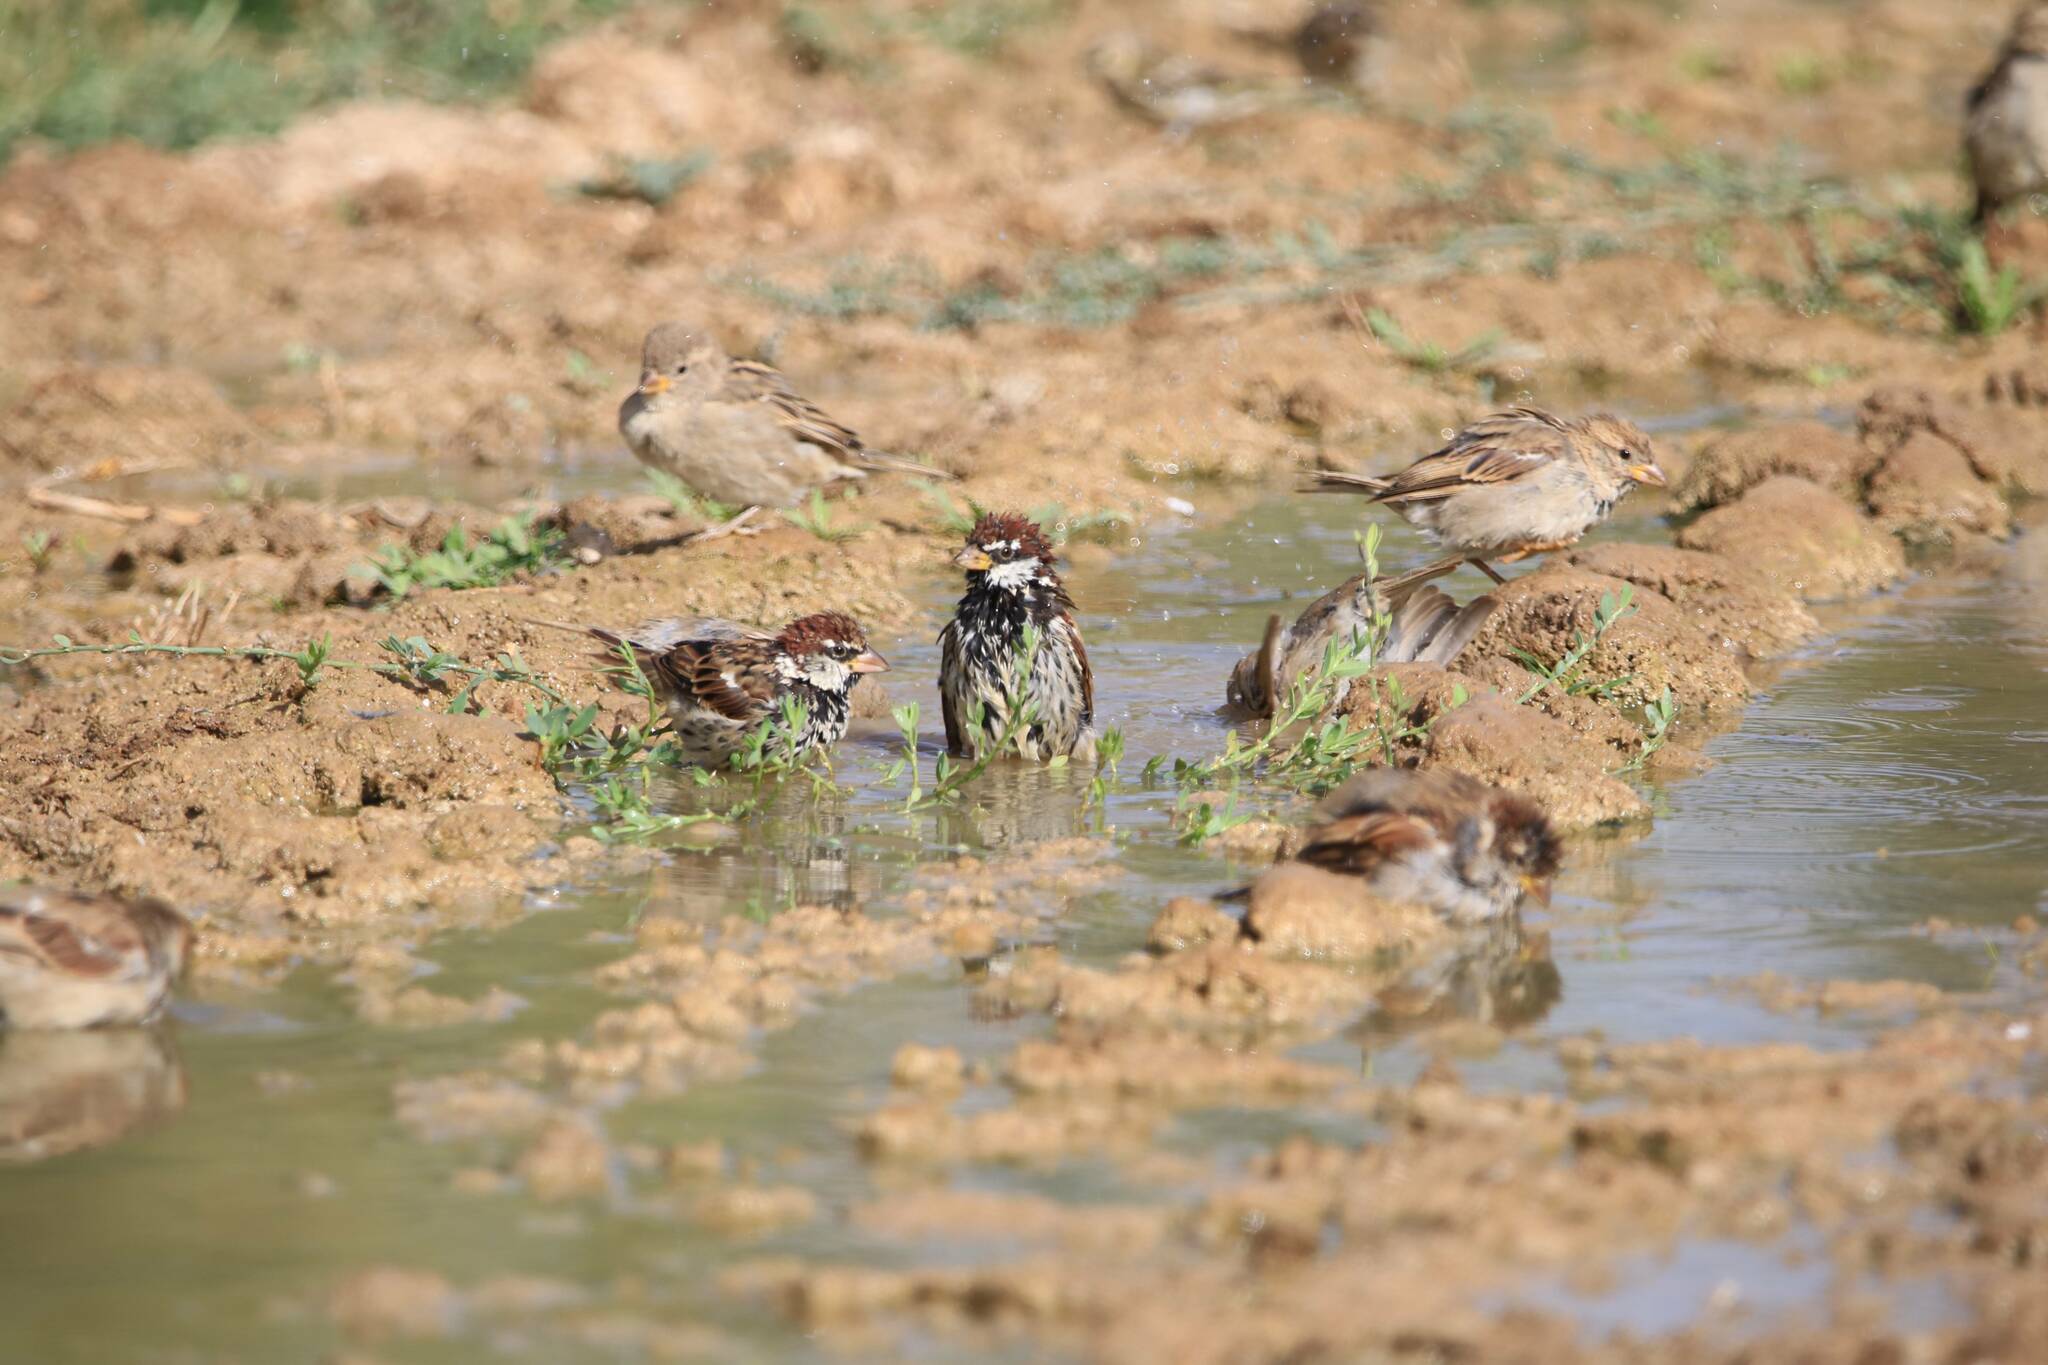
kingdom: Animalia
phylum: Chordata
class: Aves
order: Passeriformes
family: Passeridae
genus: Passer
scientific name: Passer hispaniolensis
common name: Spanish sparrow
